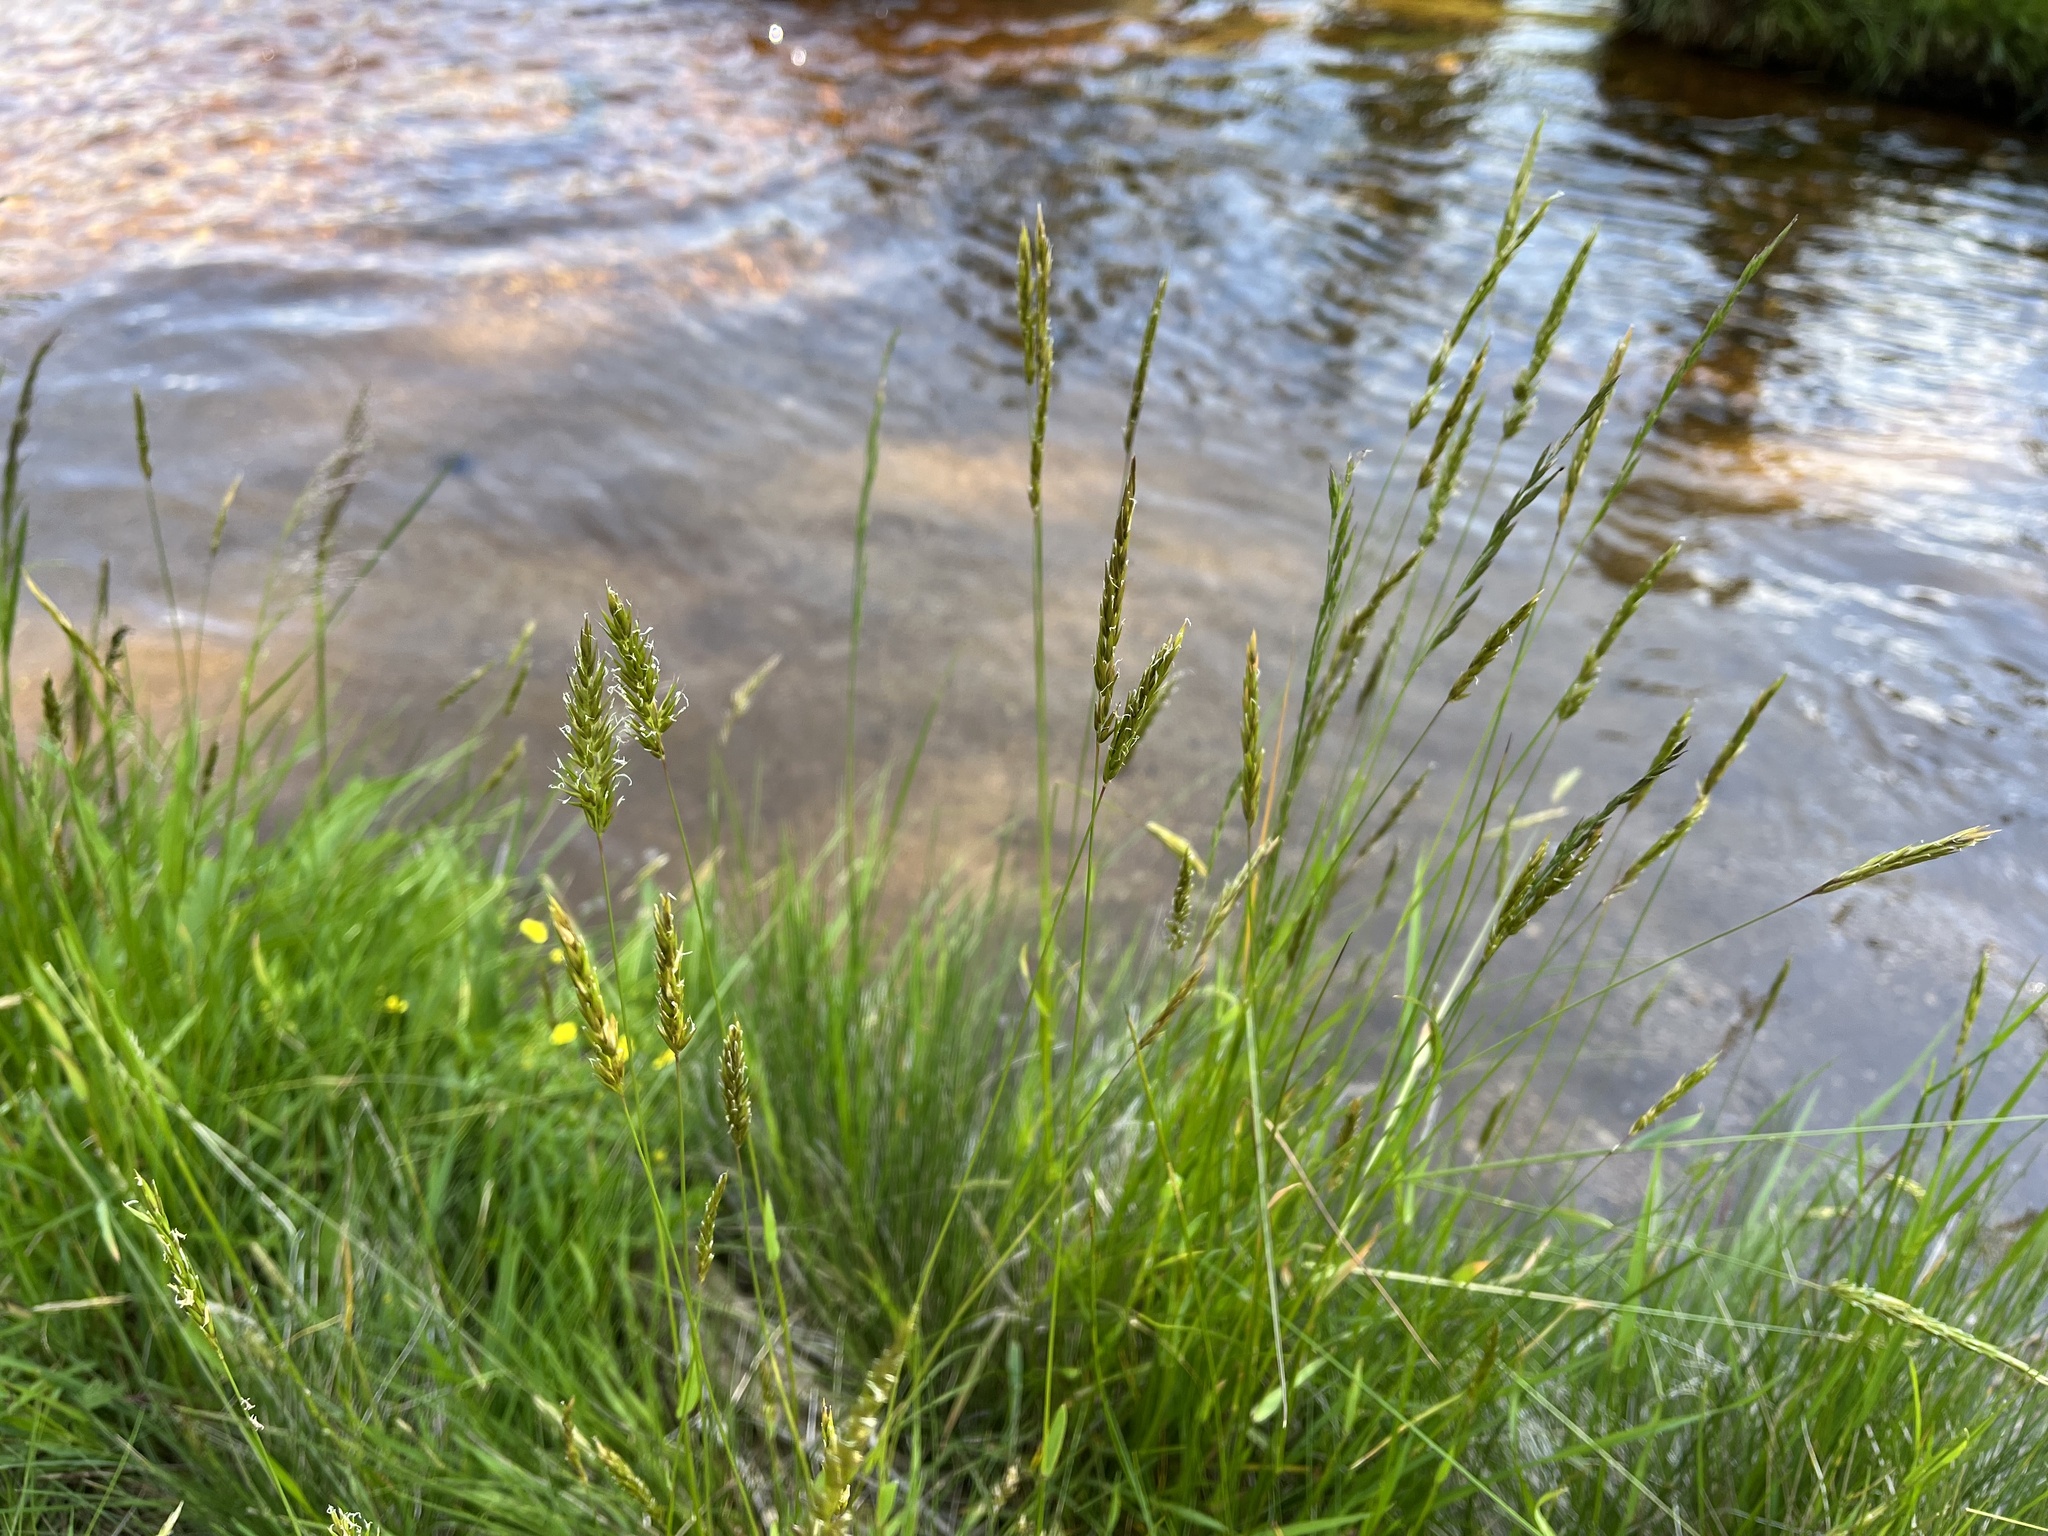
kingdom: Plantae
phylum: Tracheophyta
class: Liliopsida
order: Poales
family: Poaceae
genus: Anthoxanthum
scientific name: Anthoxanthum odoratum
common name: Sweet vernalgrass
